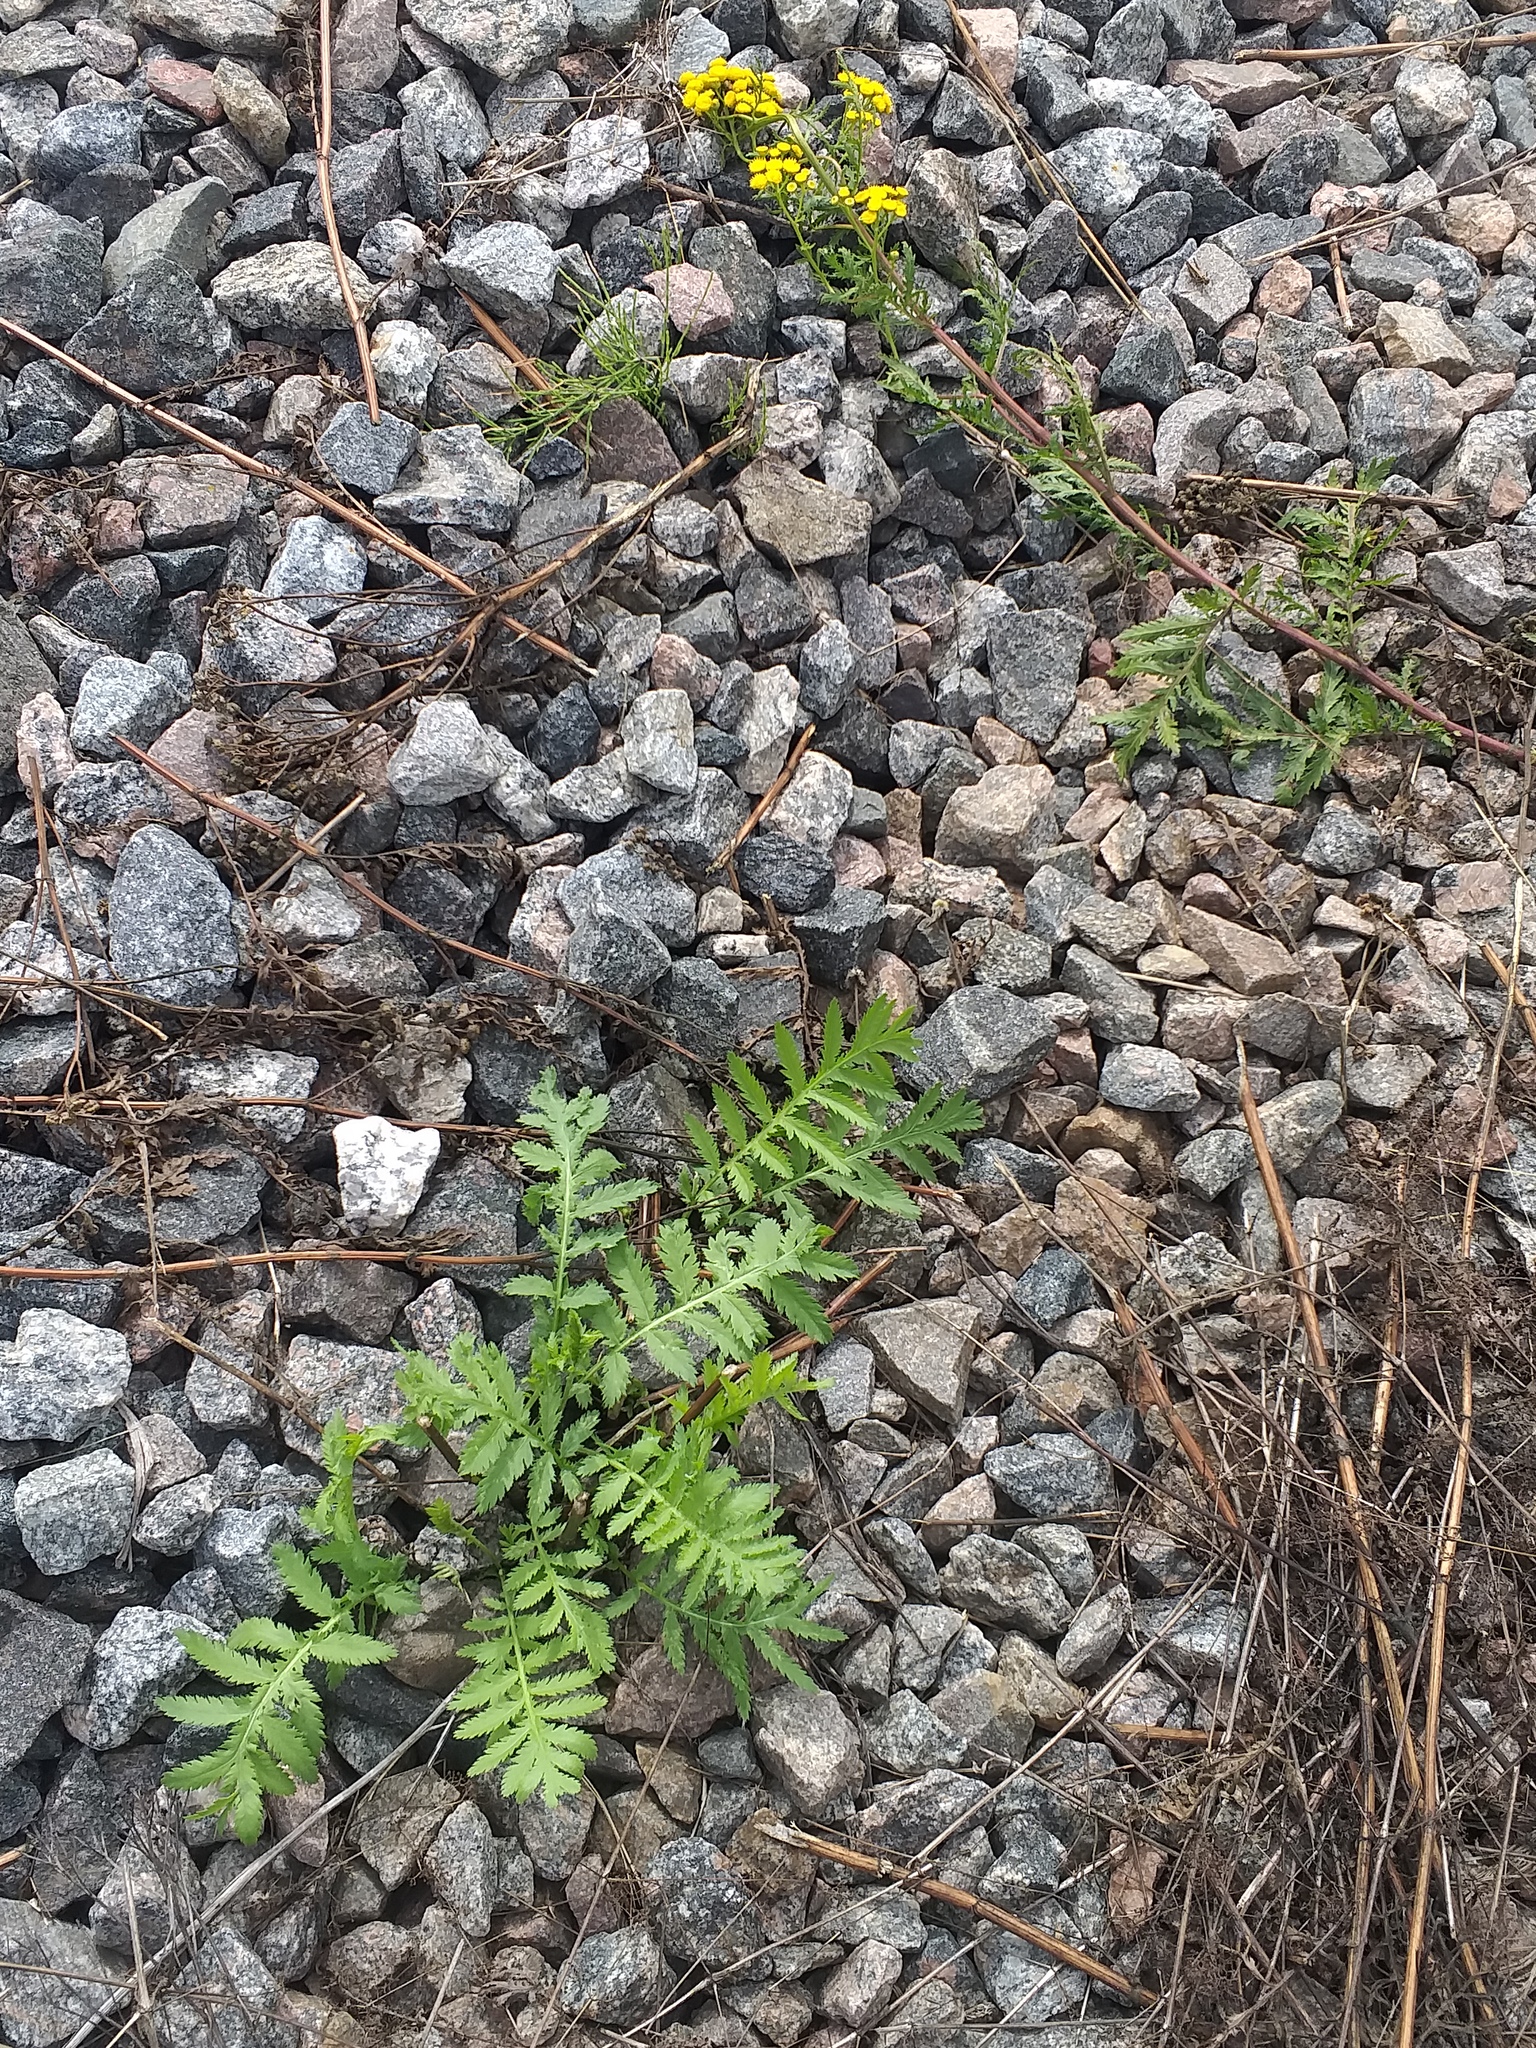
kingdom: Plantae
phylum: Tracheophyta
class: Magnoliopsida
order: Asterales
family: Asteraceae
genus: Tanacetum
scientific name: Tanacetum vulgare
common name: Common tansy
